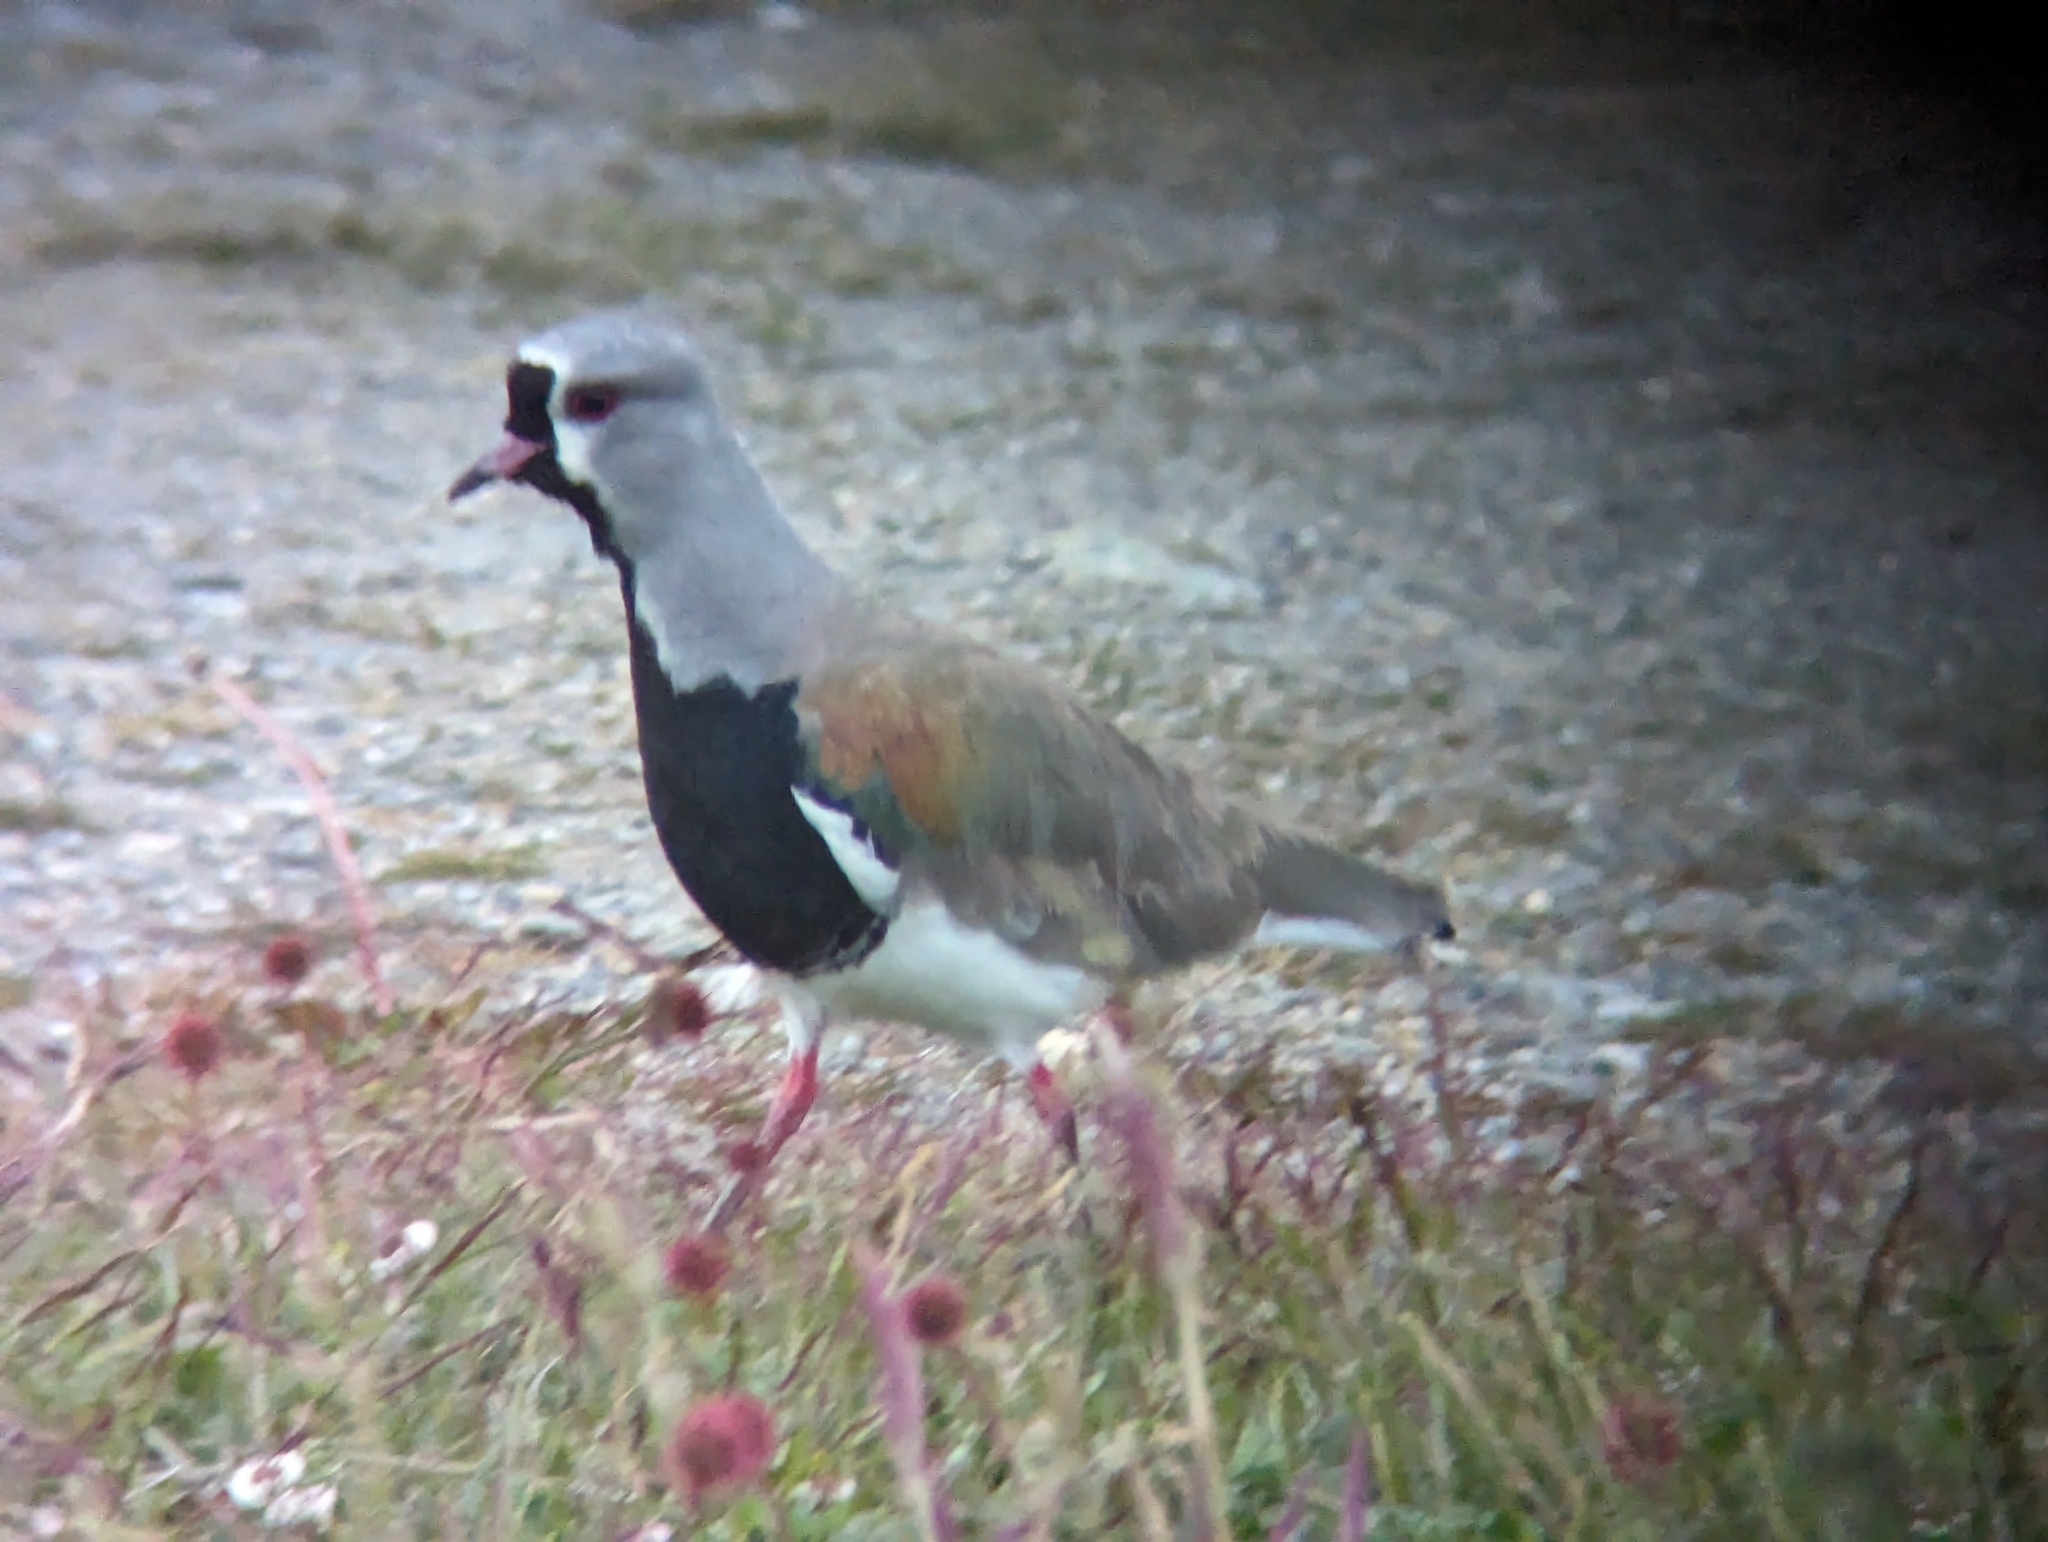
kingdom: Animalia
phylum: Chordata
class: Aves
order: Charadriiformes
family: Charadriidae
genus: Vanellus
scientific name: Vanellus chilensis
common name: Southern lapwing
